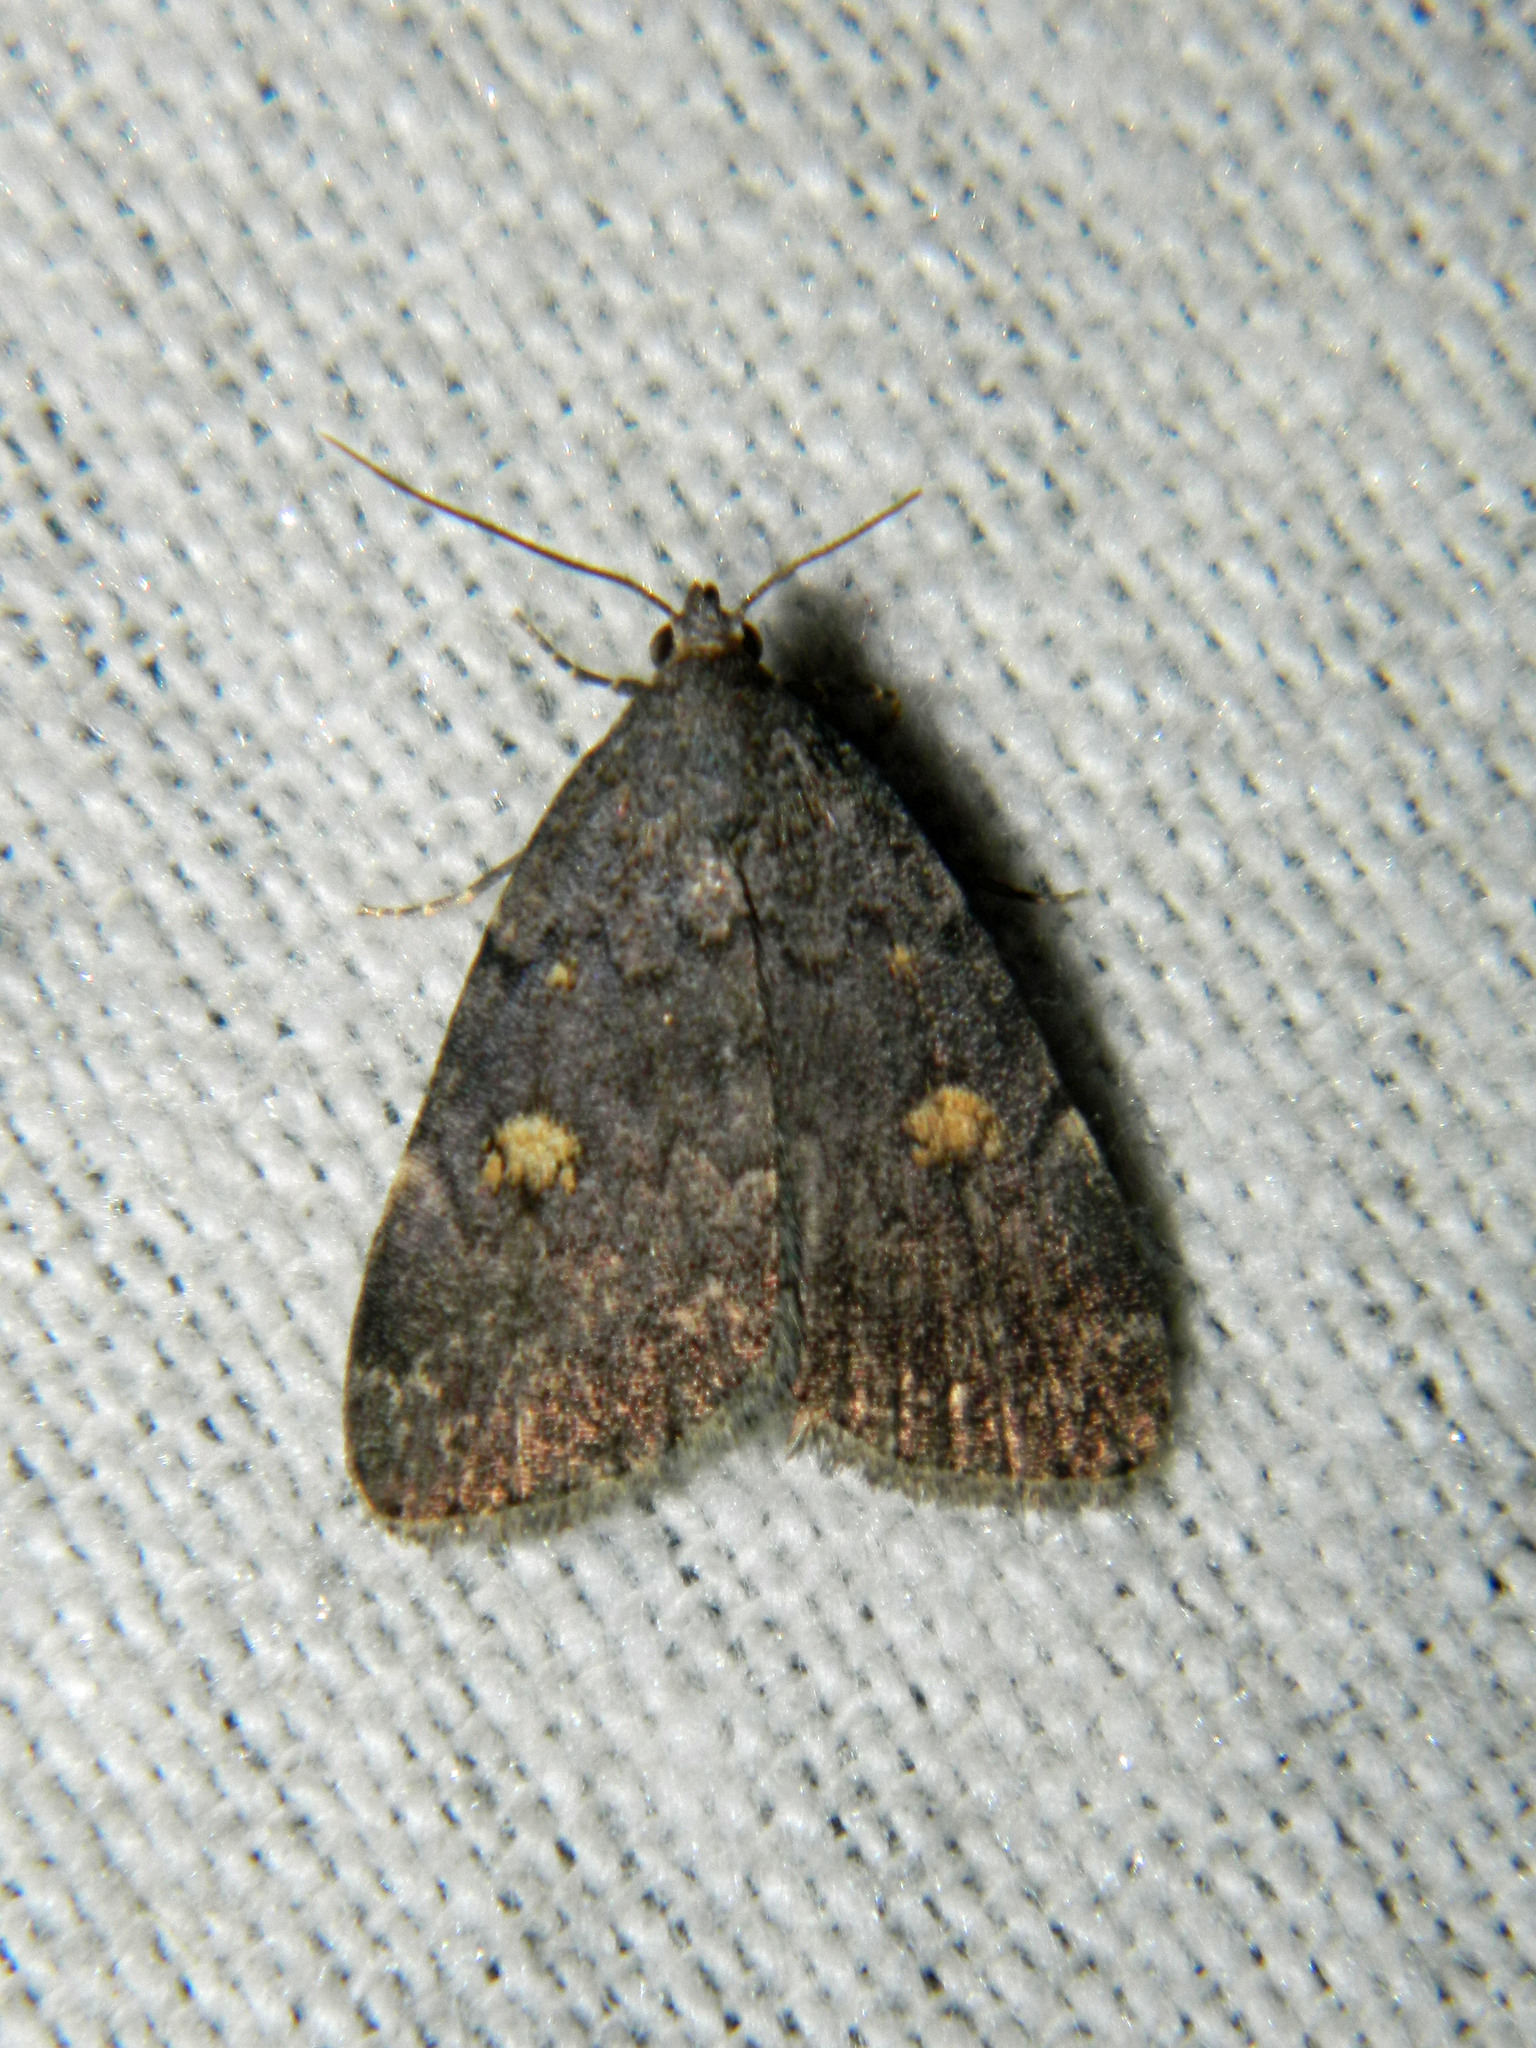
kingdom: Animalia
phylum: Arthropoda
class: Insecta
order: Lepidoptera
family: Erebidae
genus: Idia
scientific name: Idia aemula
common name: Common idia moth
